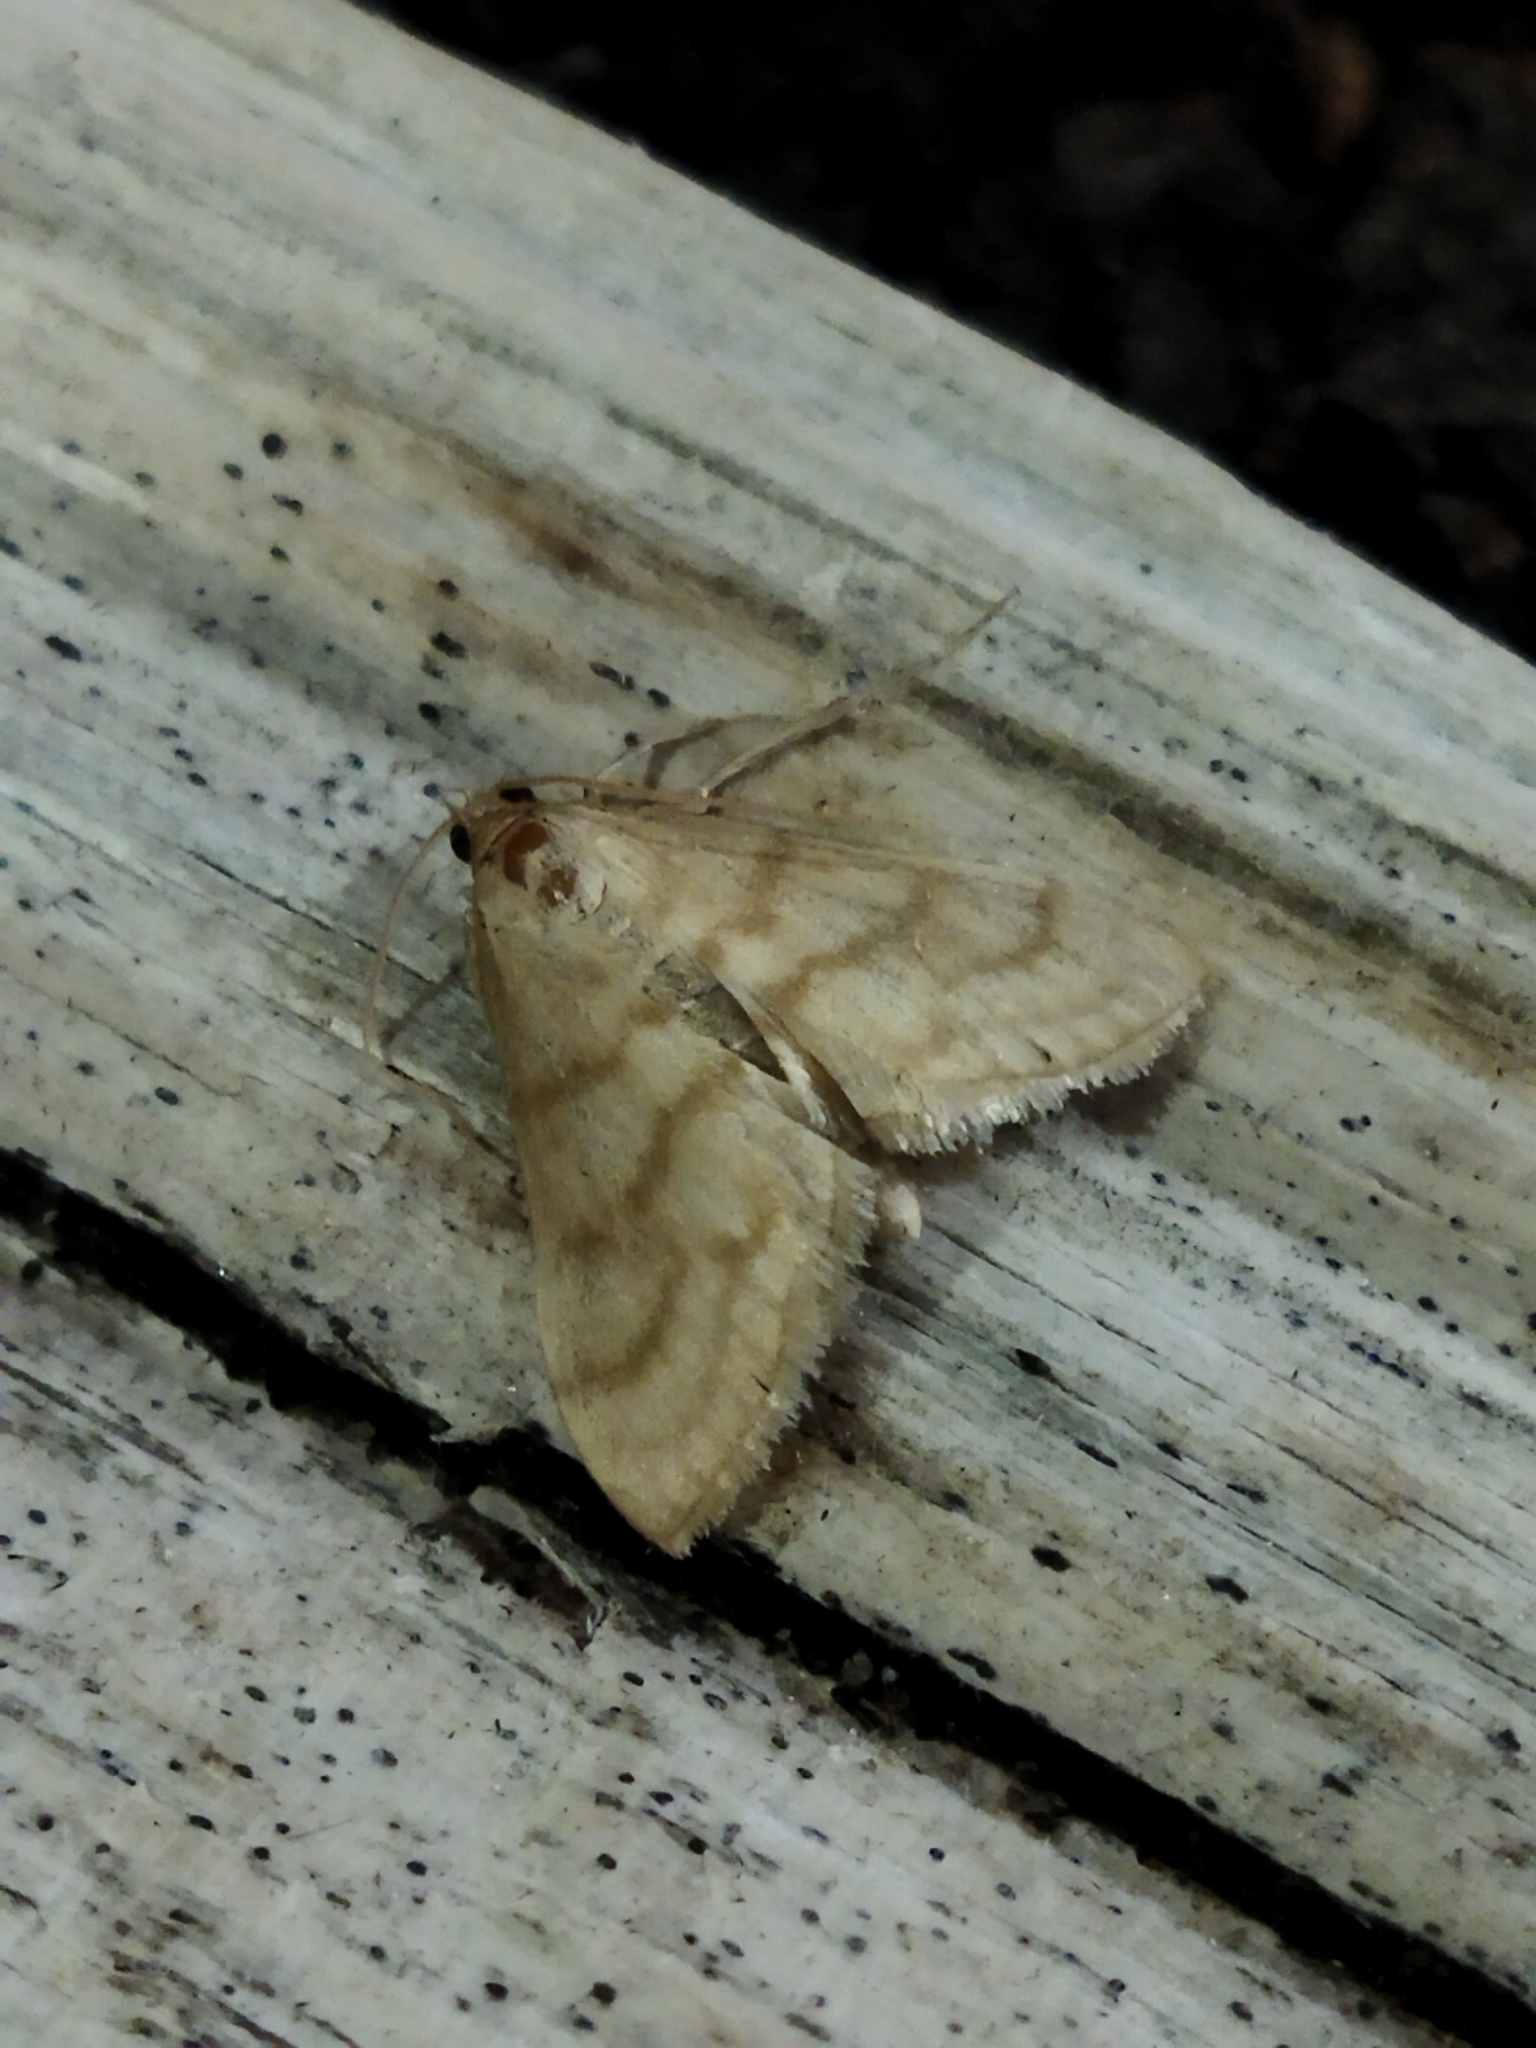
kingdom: Animalia
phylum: Arthropoda
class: Insecta
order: Lepidoptera
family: Crambidae
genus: Paracorsia
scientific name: Paracorsia repandalis
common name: Mullein moth
